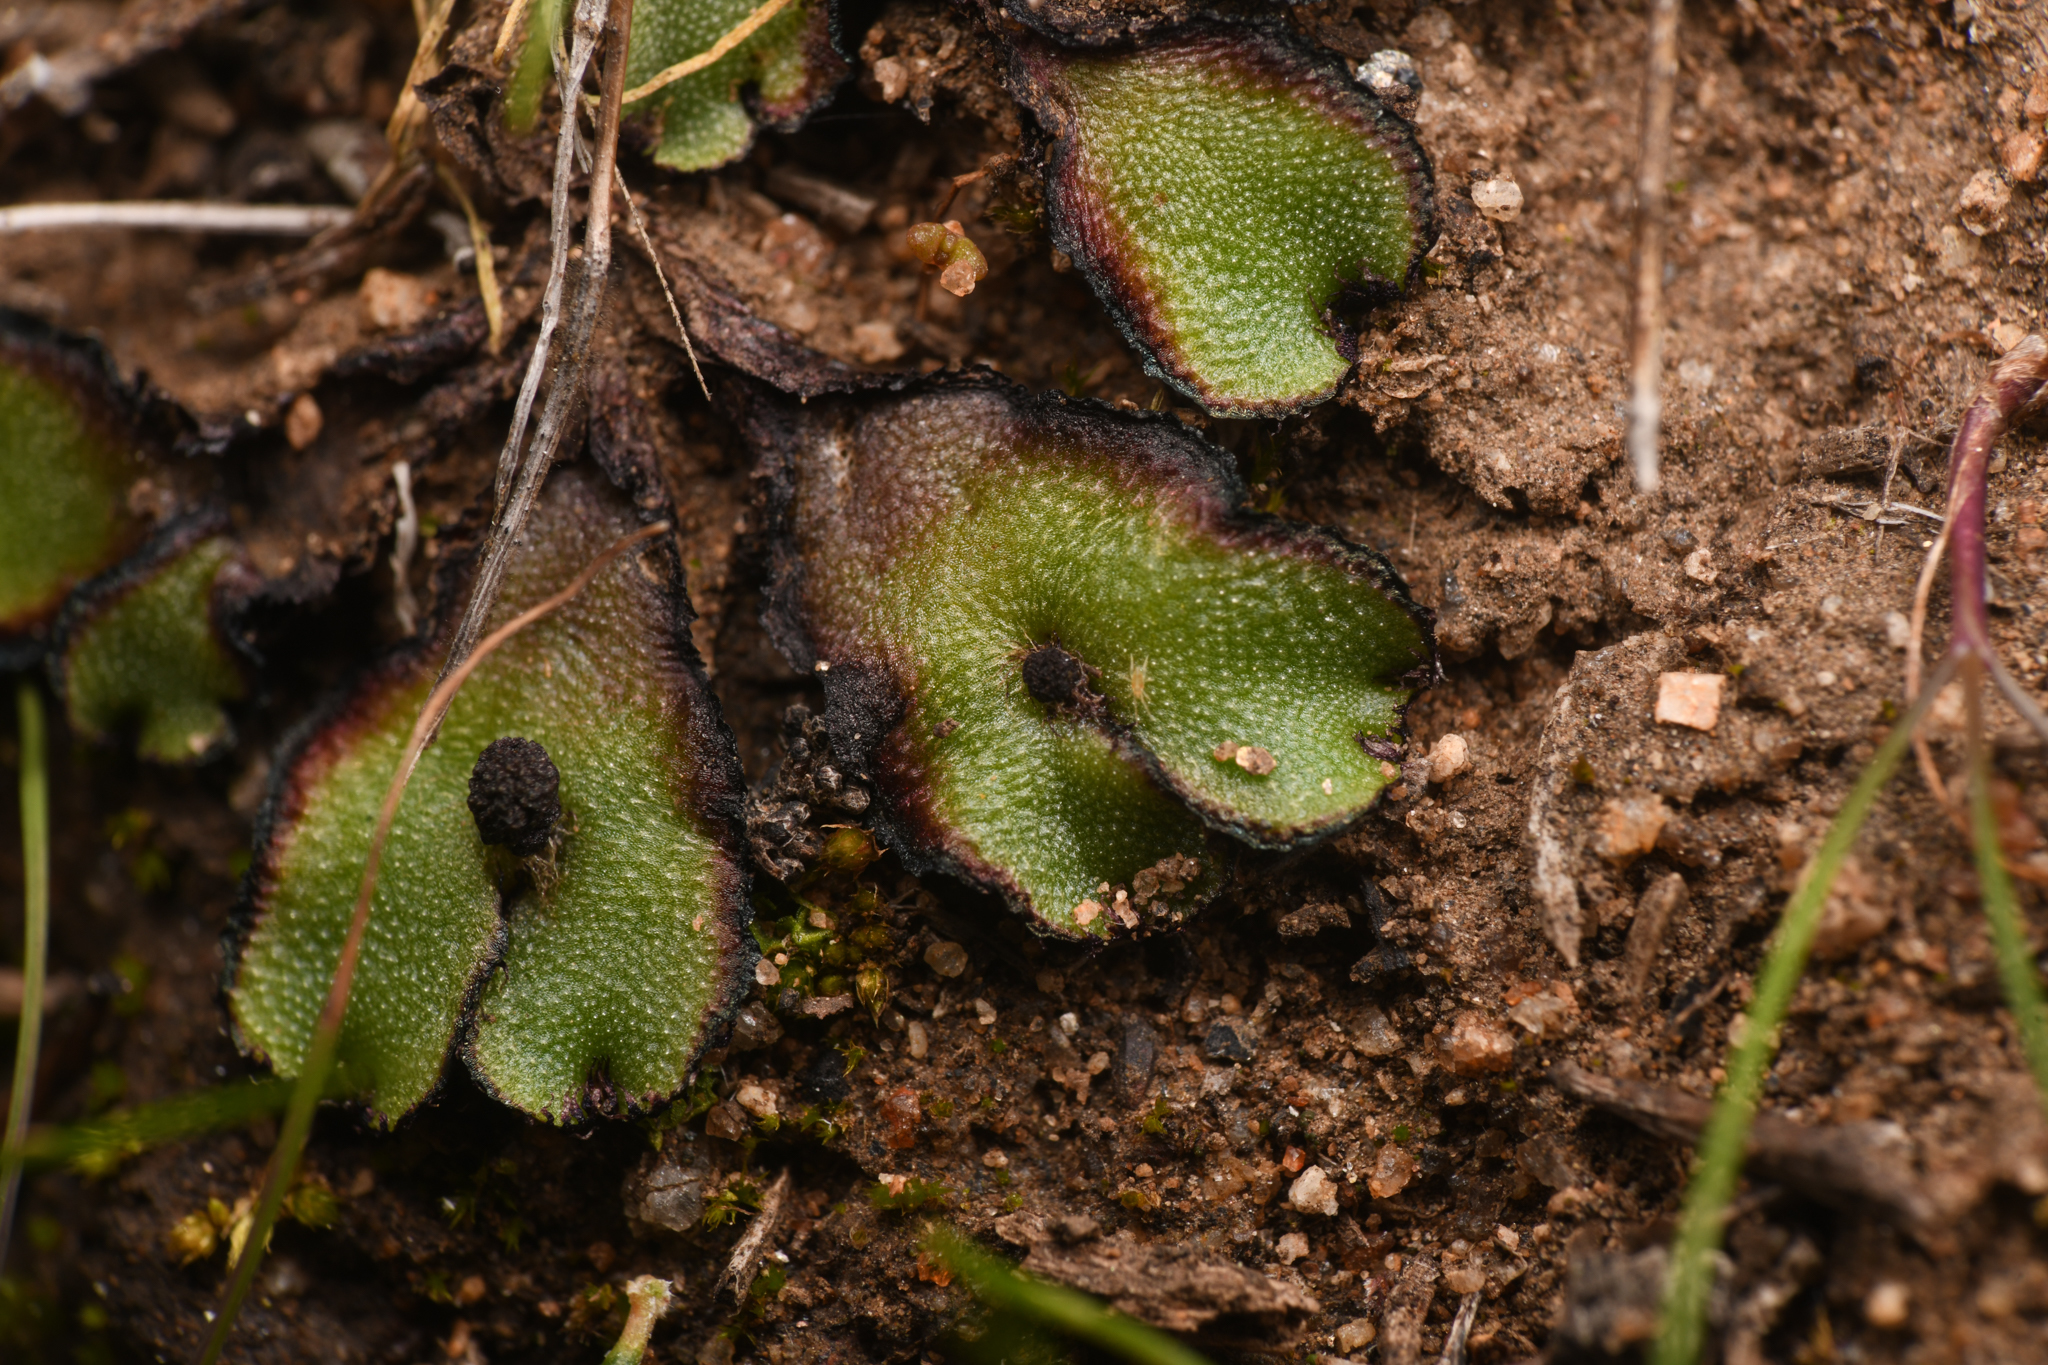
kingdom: Plantae
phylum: Marchantiophyta
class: Marchantiopsida
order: Marchantiales
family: Aytoniaceae
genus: Asterella
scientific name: Asterella bolanderi
